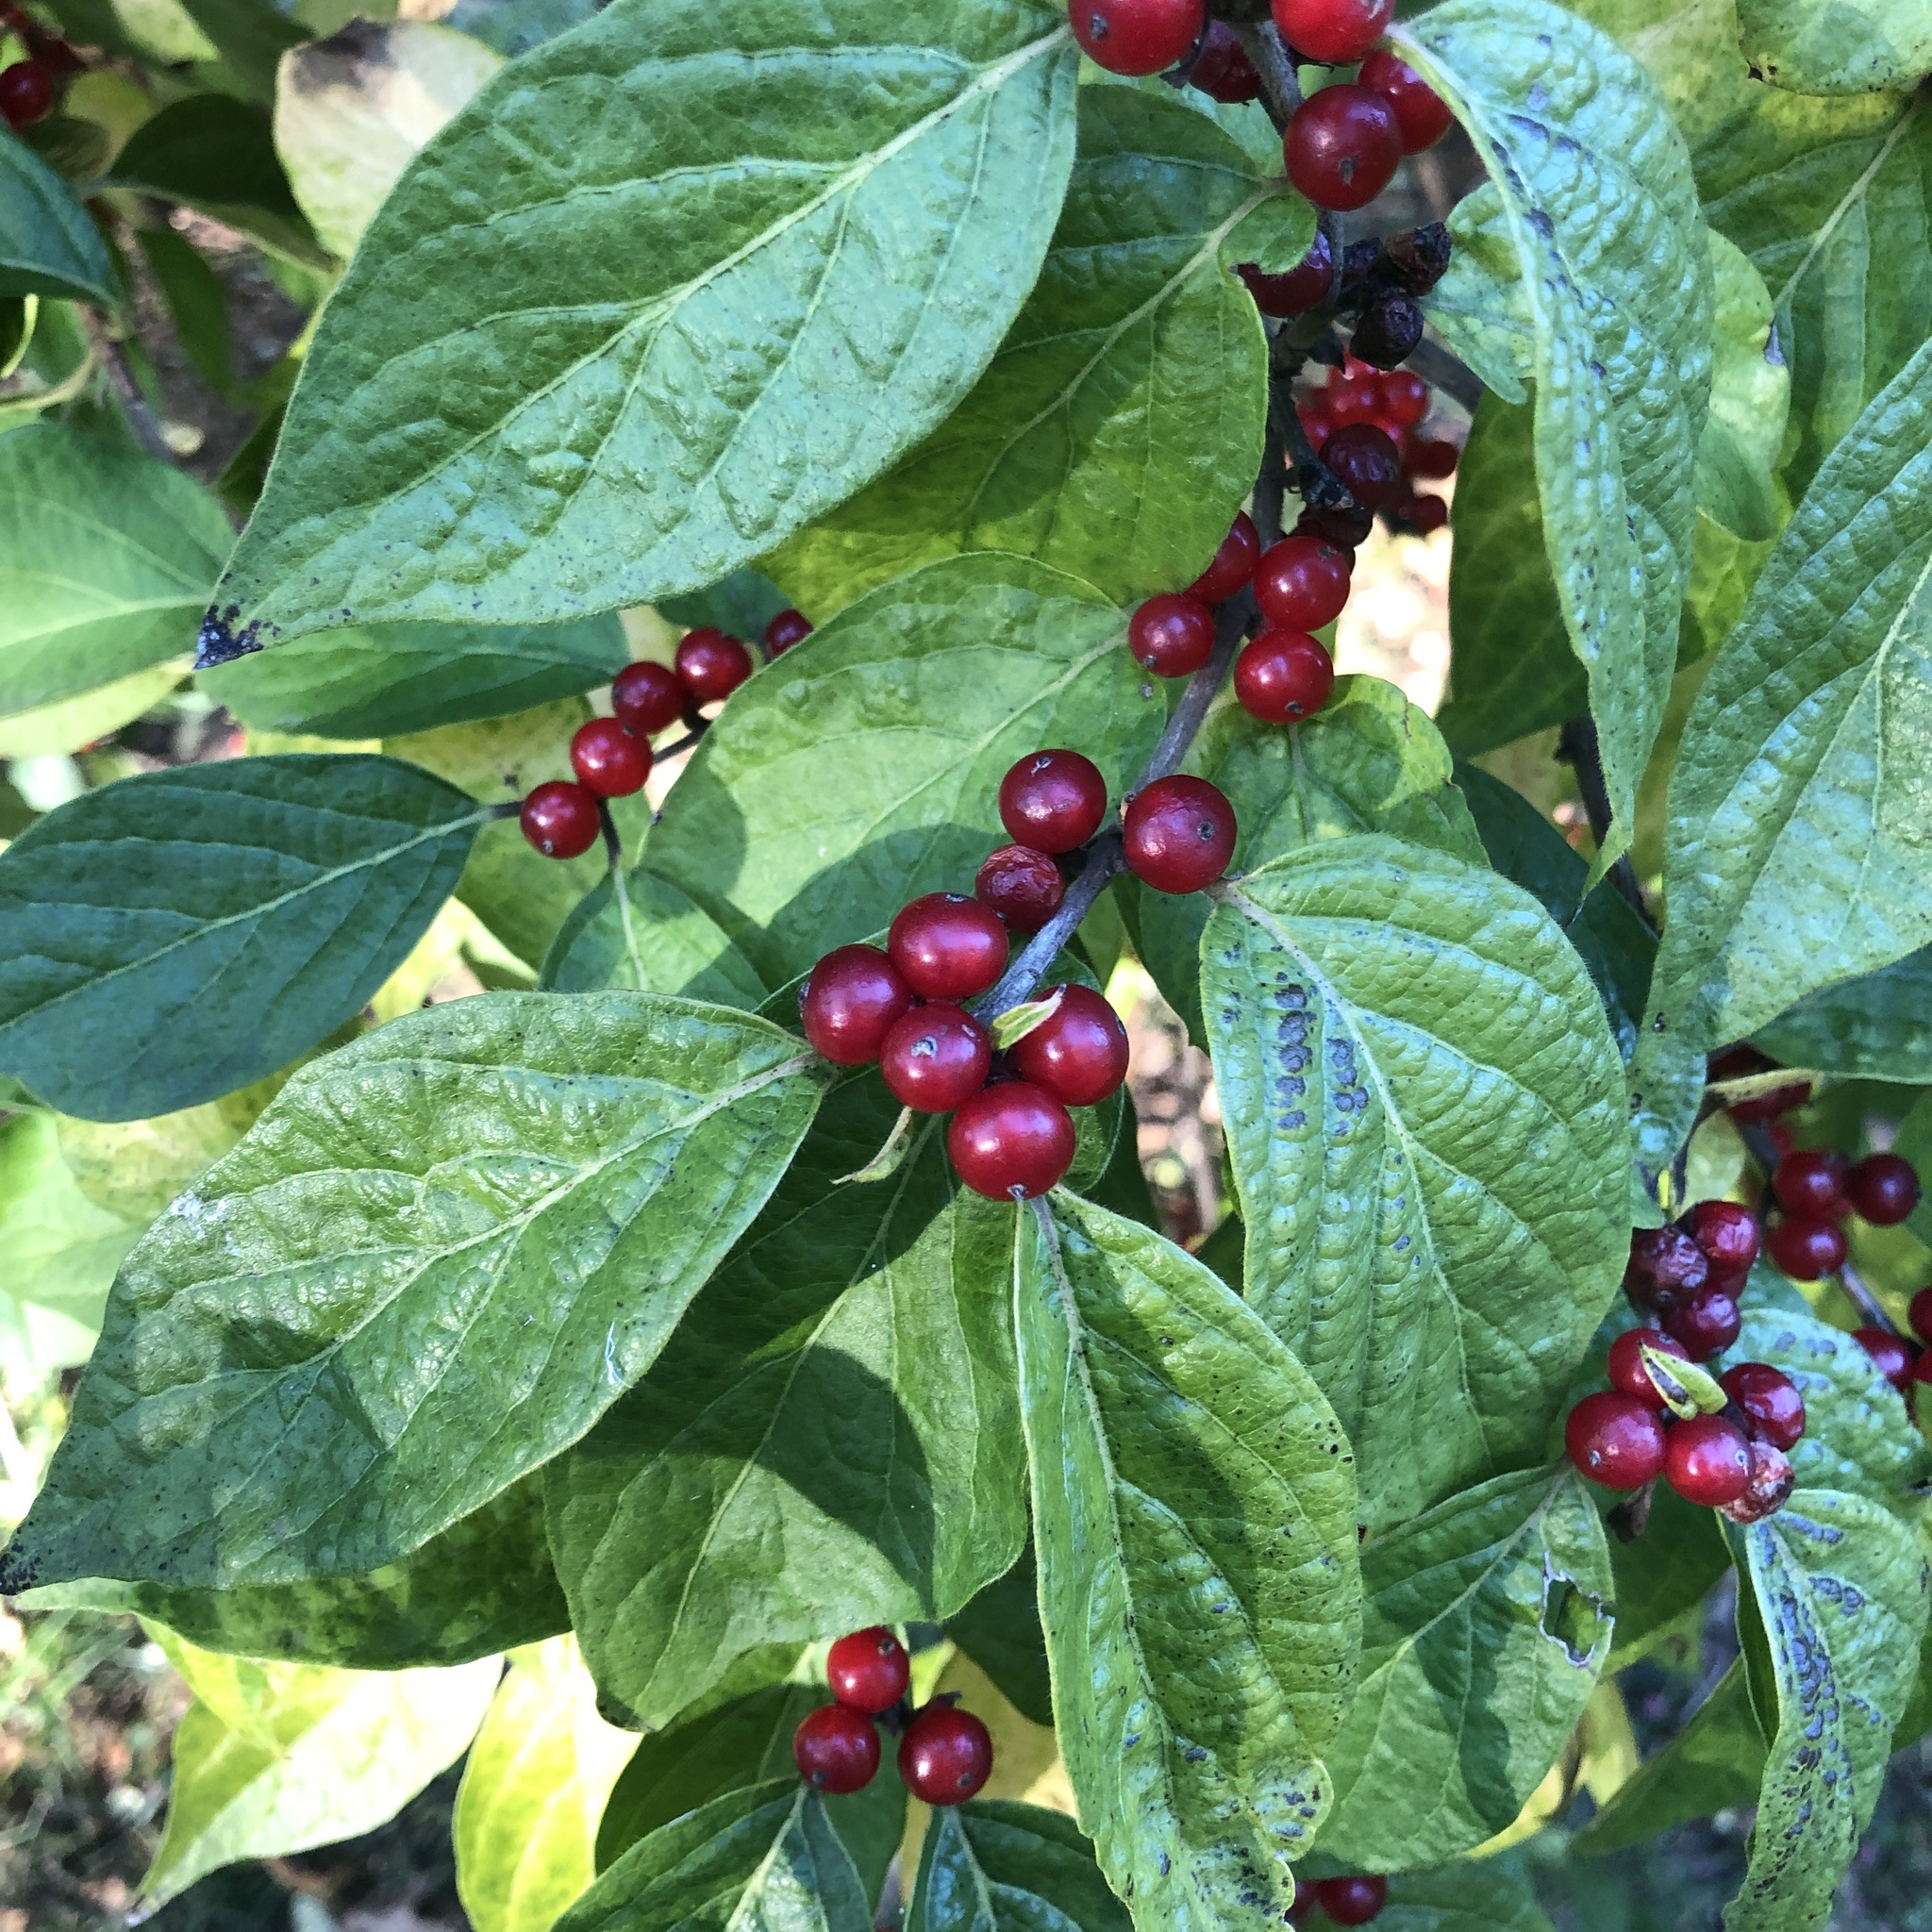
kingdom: Plantae
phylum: Tracheophyta
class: Magnoliopsida
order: Dipsacales
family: Caprifoliaceae
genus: Lonicera
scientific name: Lonicera maackii
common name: Amur honeysuckle
